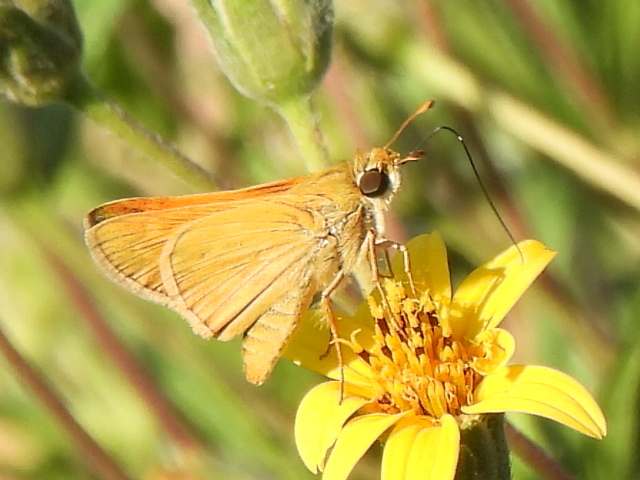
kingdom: Animalia
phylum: Arthropoda
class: Insecta
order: Lepidoptera
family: Hesperiidae
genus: Atrytone
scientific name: Atrytone delaware
